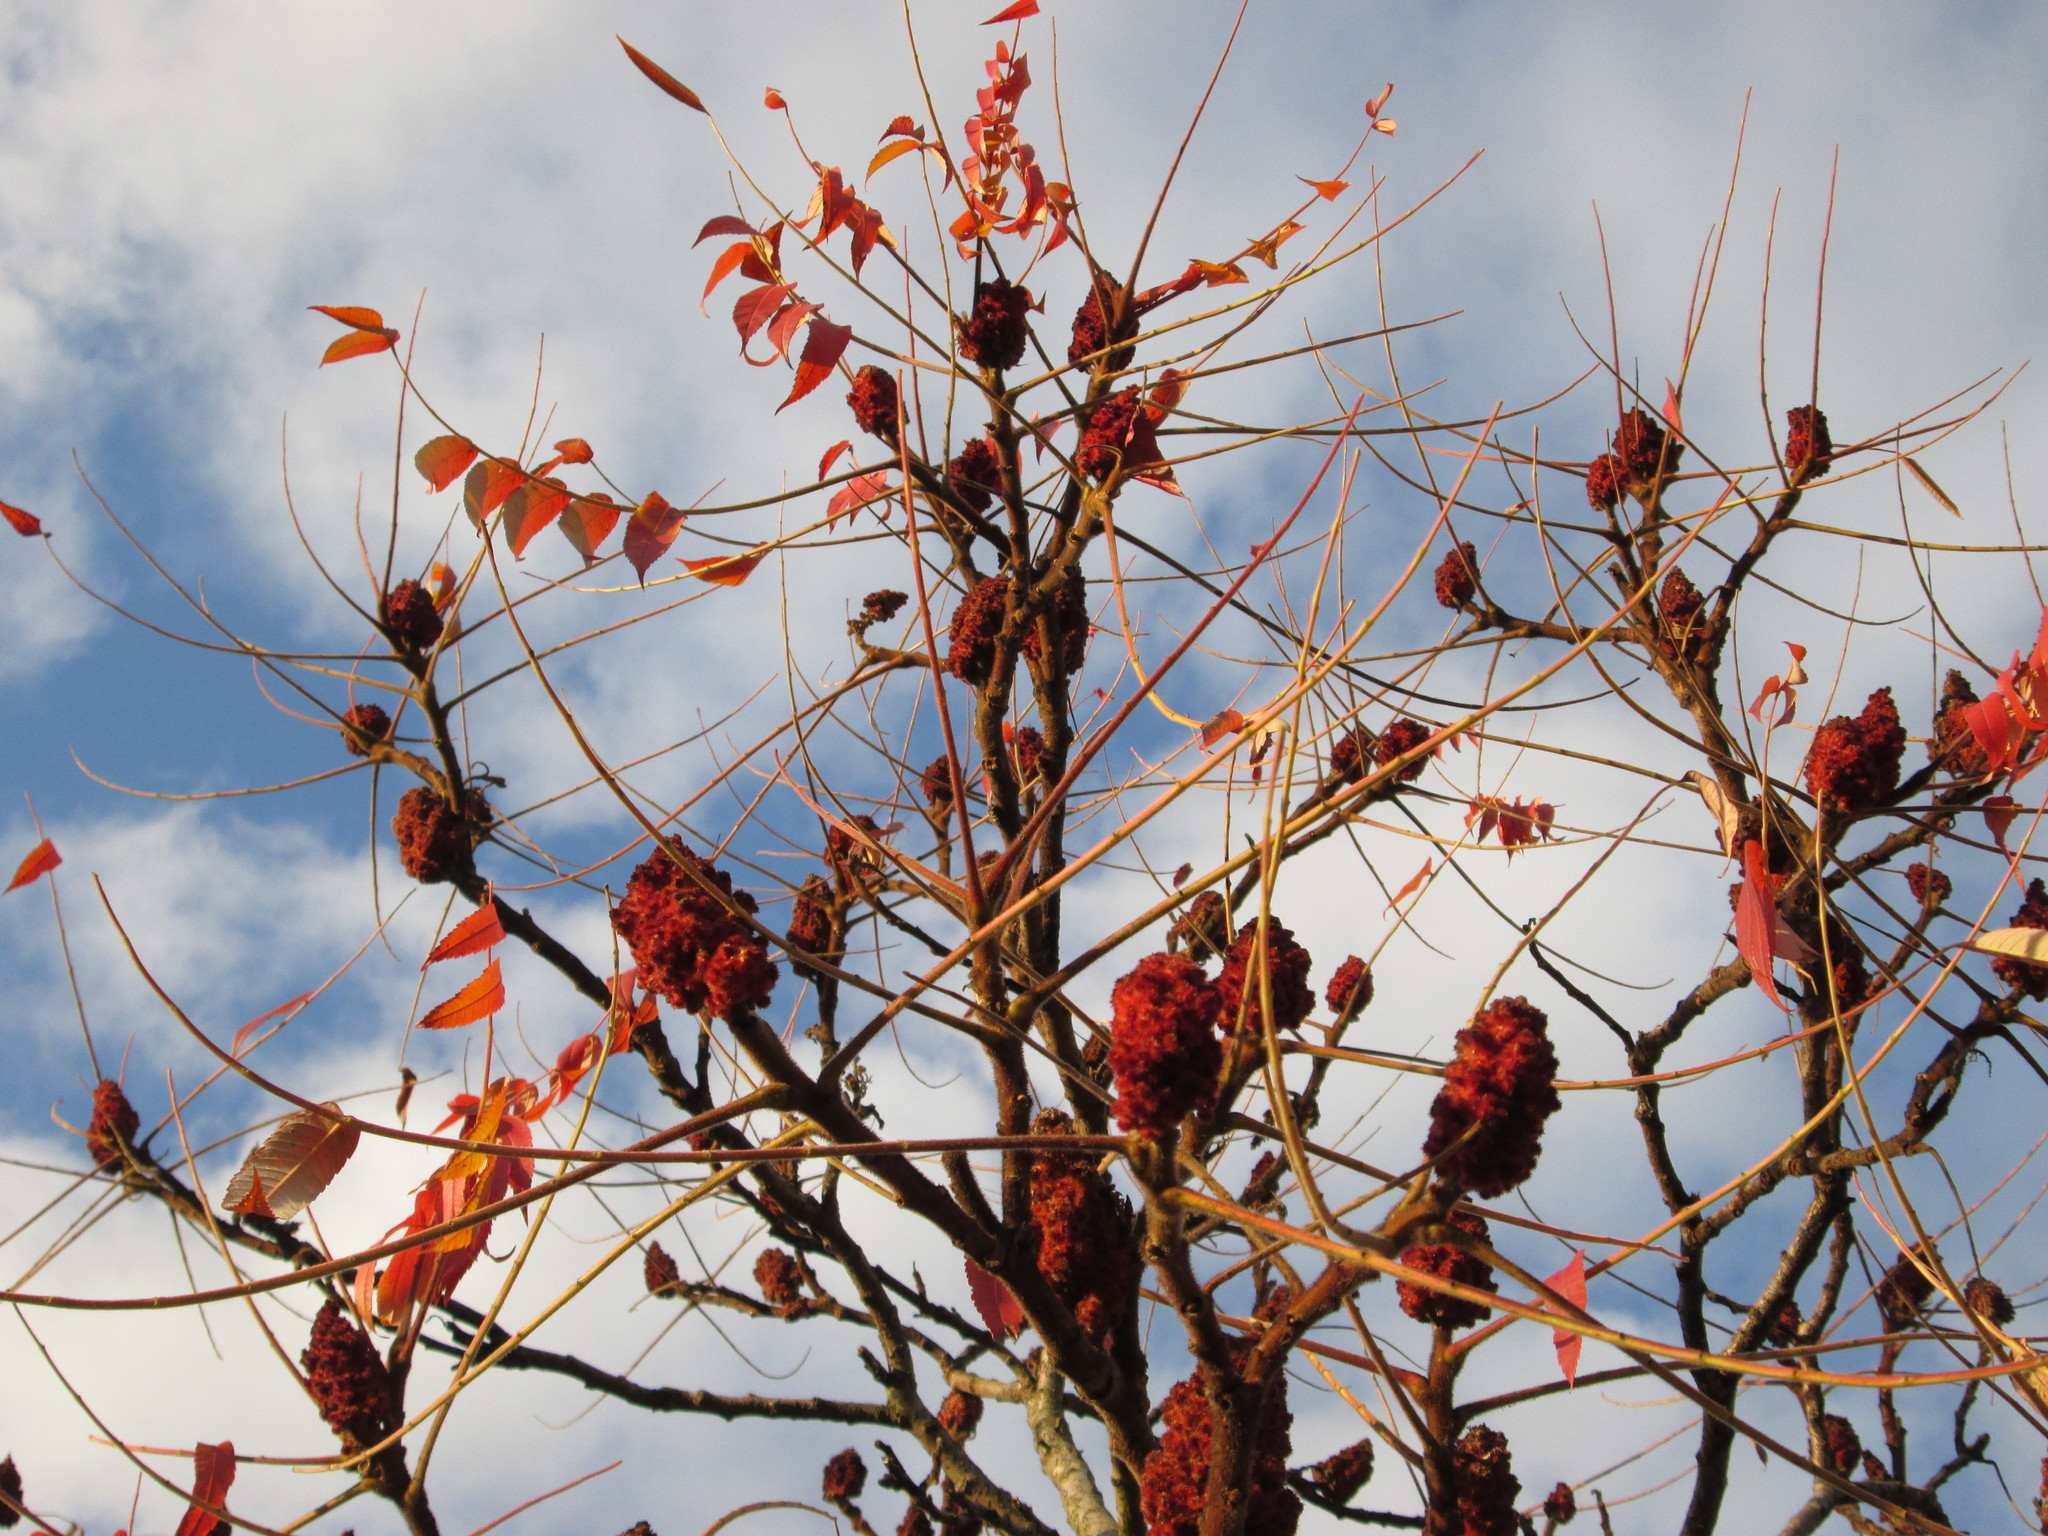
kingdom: Plantae
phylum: Tracheophyta
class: Magnoliopsida
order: Sapindales
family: Anacardiaceae
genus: Rhus
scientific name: Rhus typhina
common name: Staghorn sumac
